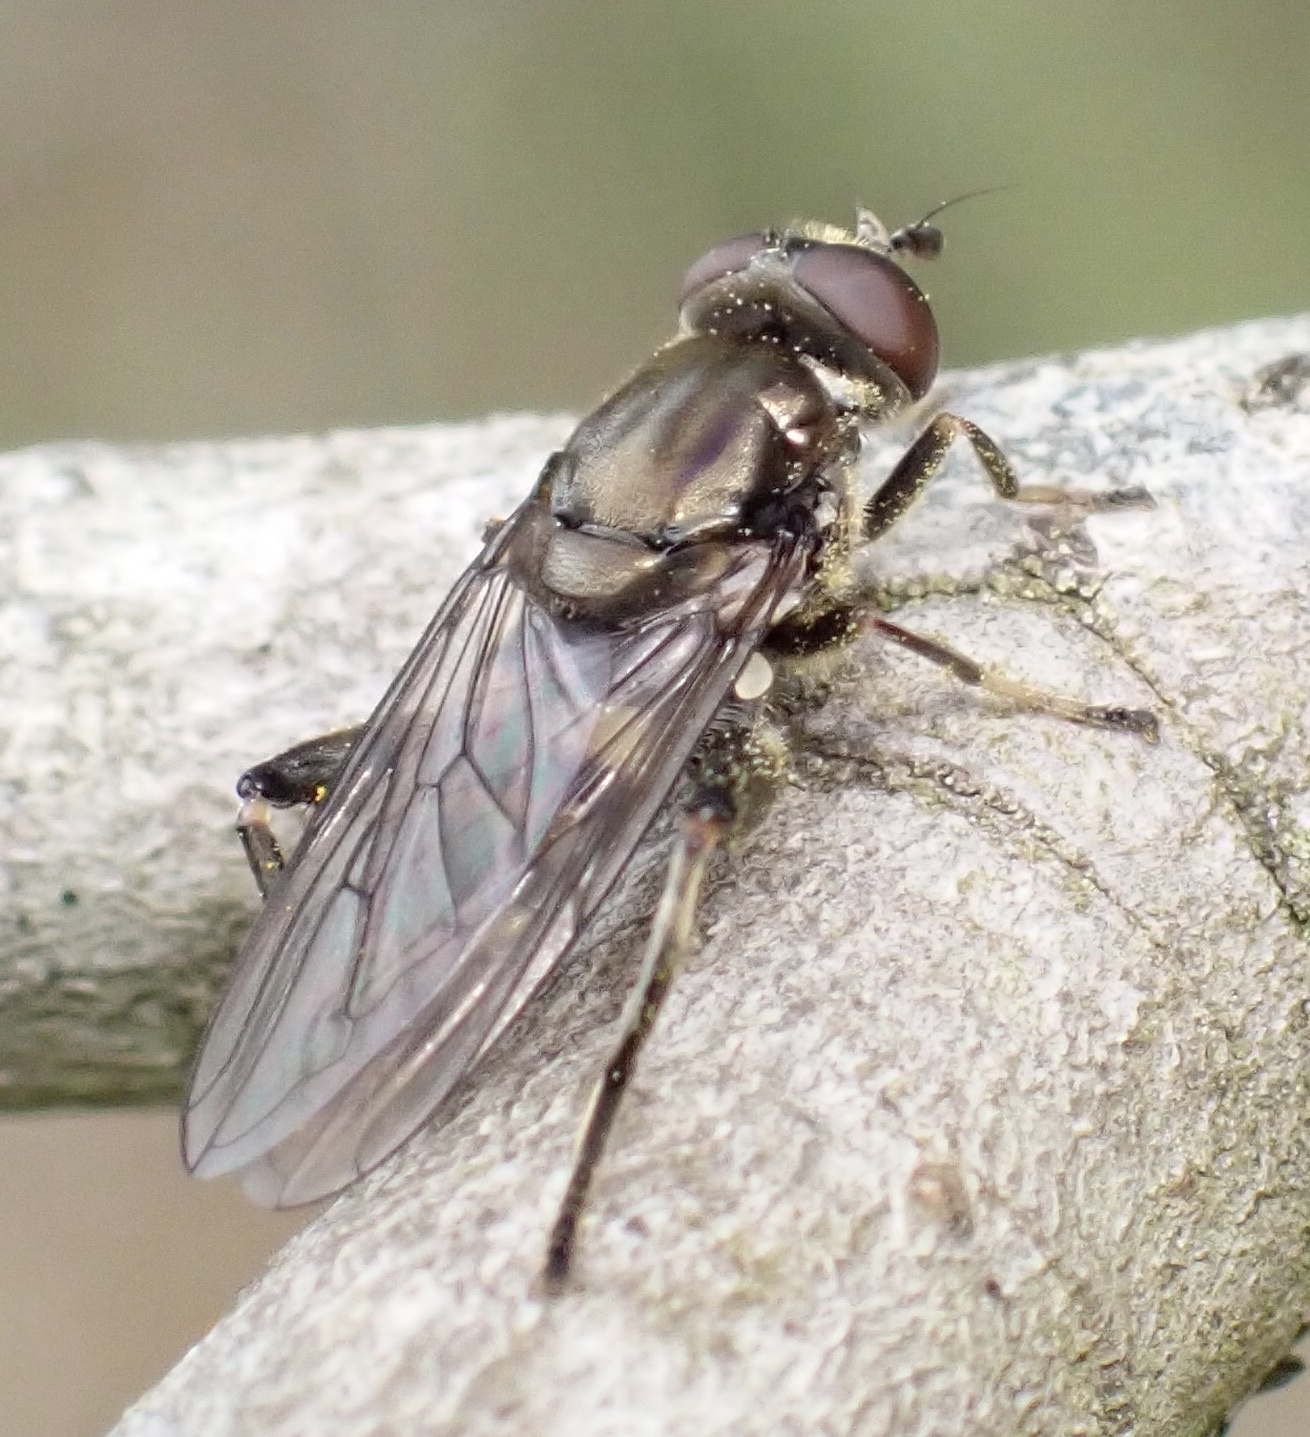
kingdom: Animalia
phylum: Arthropoda
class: Insecta
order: Diptera
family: Syrphidae
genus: Chalcosyrphus
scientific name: Chalcosyrphus nemorum
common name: Dusky-banded forest fly
